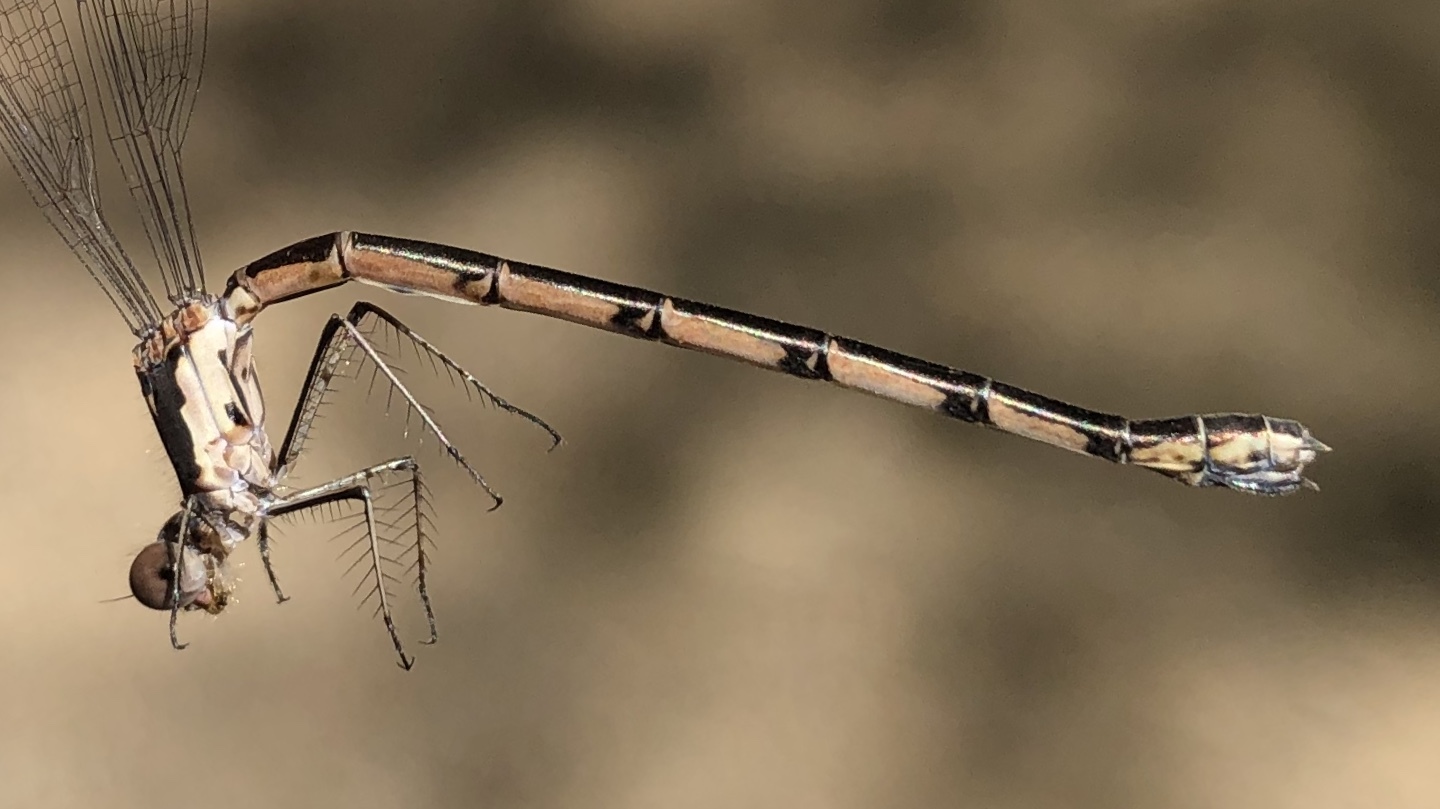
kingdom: Animalia
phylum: Arthropoda
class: Insecta
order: Odonata
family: Lestidae
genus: Lestes
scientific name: Lestes congener
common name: Spotted spreadwing
